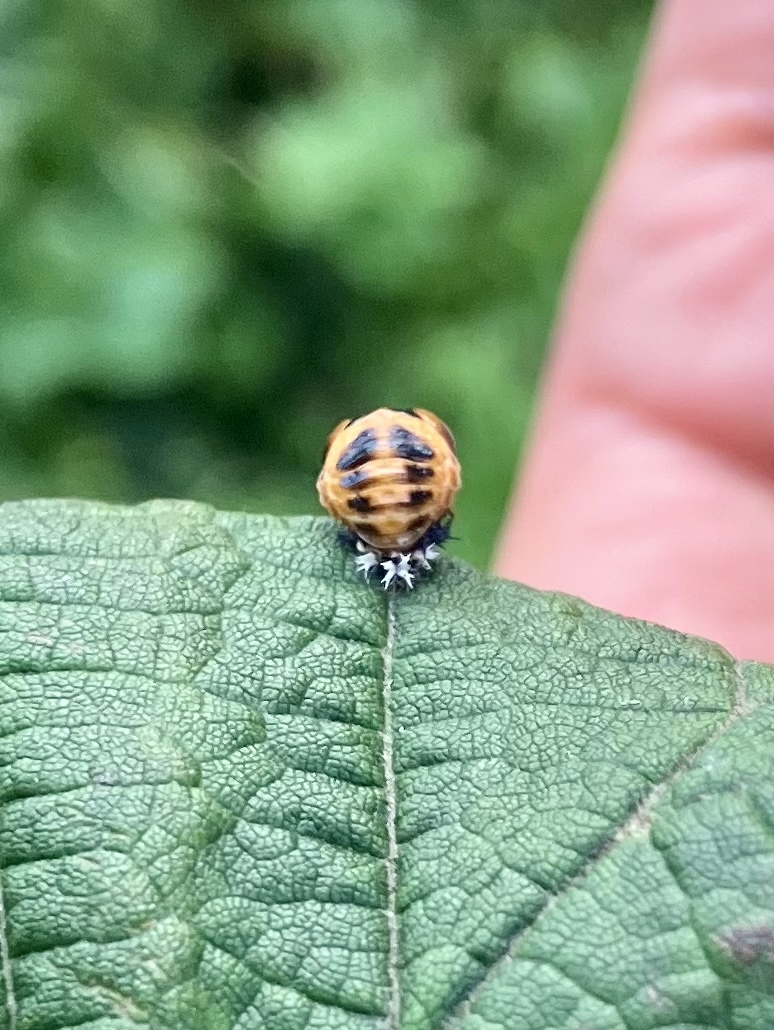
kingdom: Animalia
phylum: Arthropoda
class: Insecta
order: Coleoptera
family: Coccinellidae
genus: Harmonia
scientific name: Harmonia axyridis
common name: Harlequin ladybird
